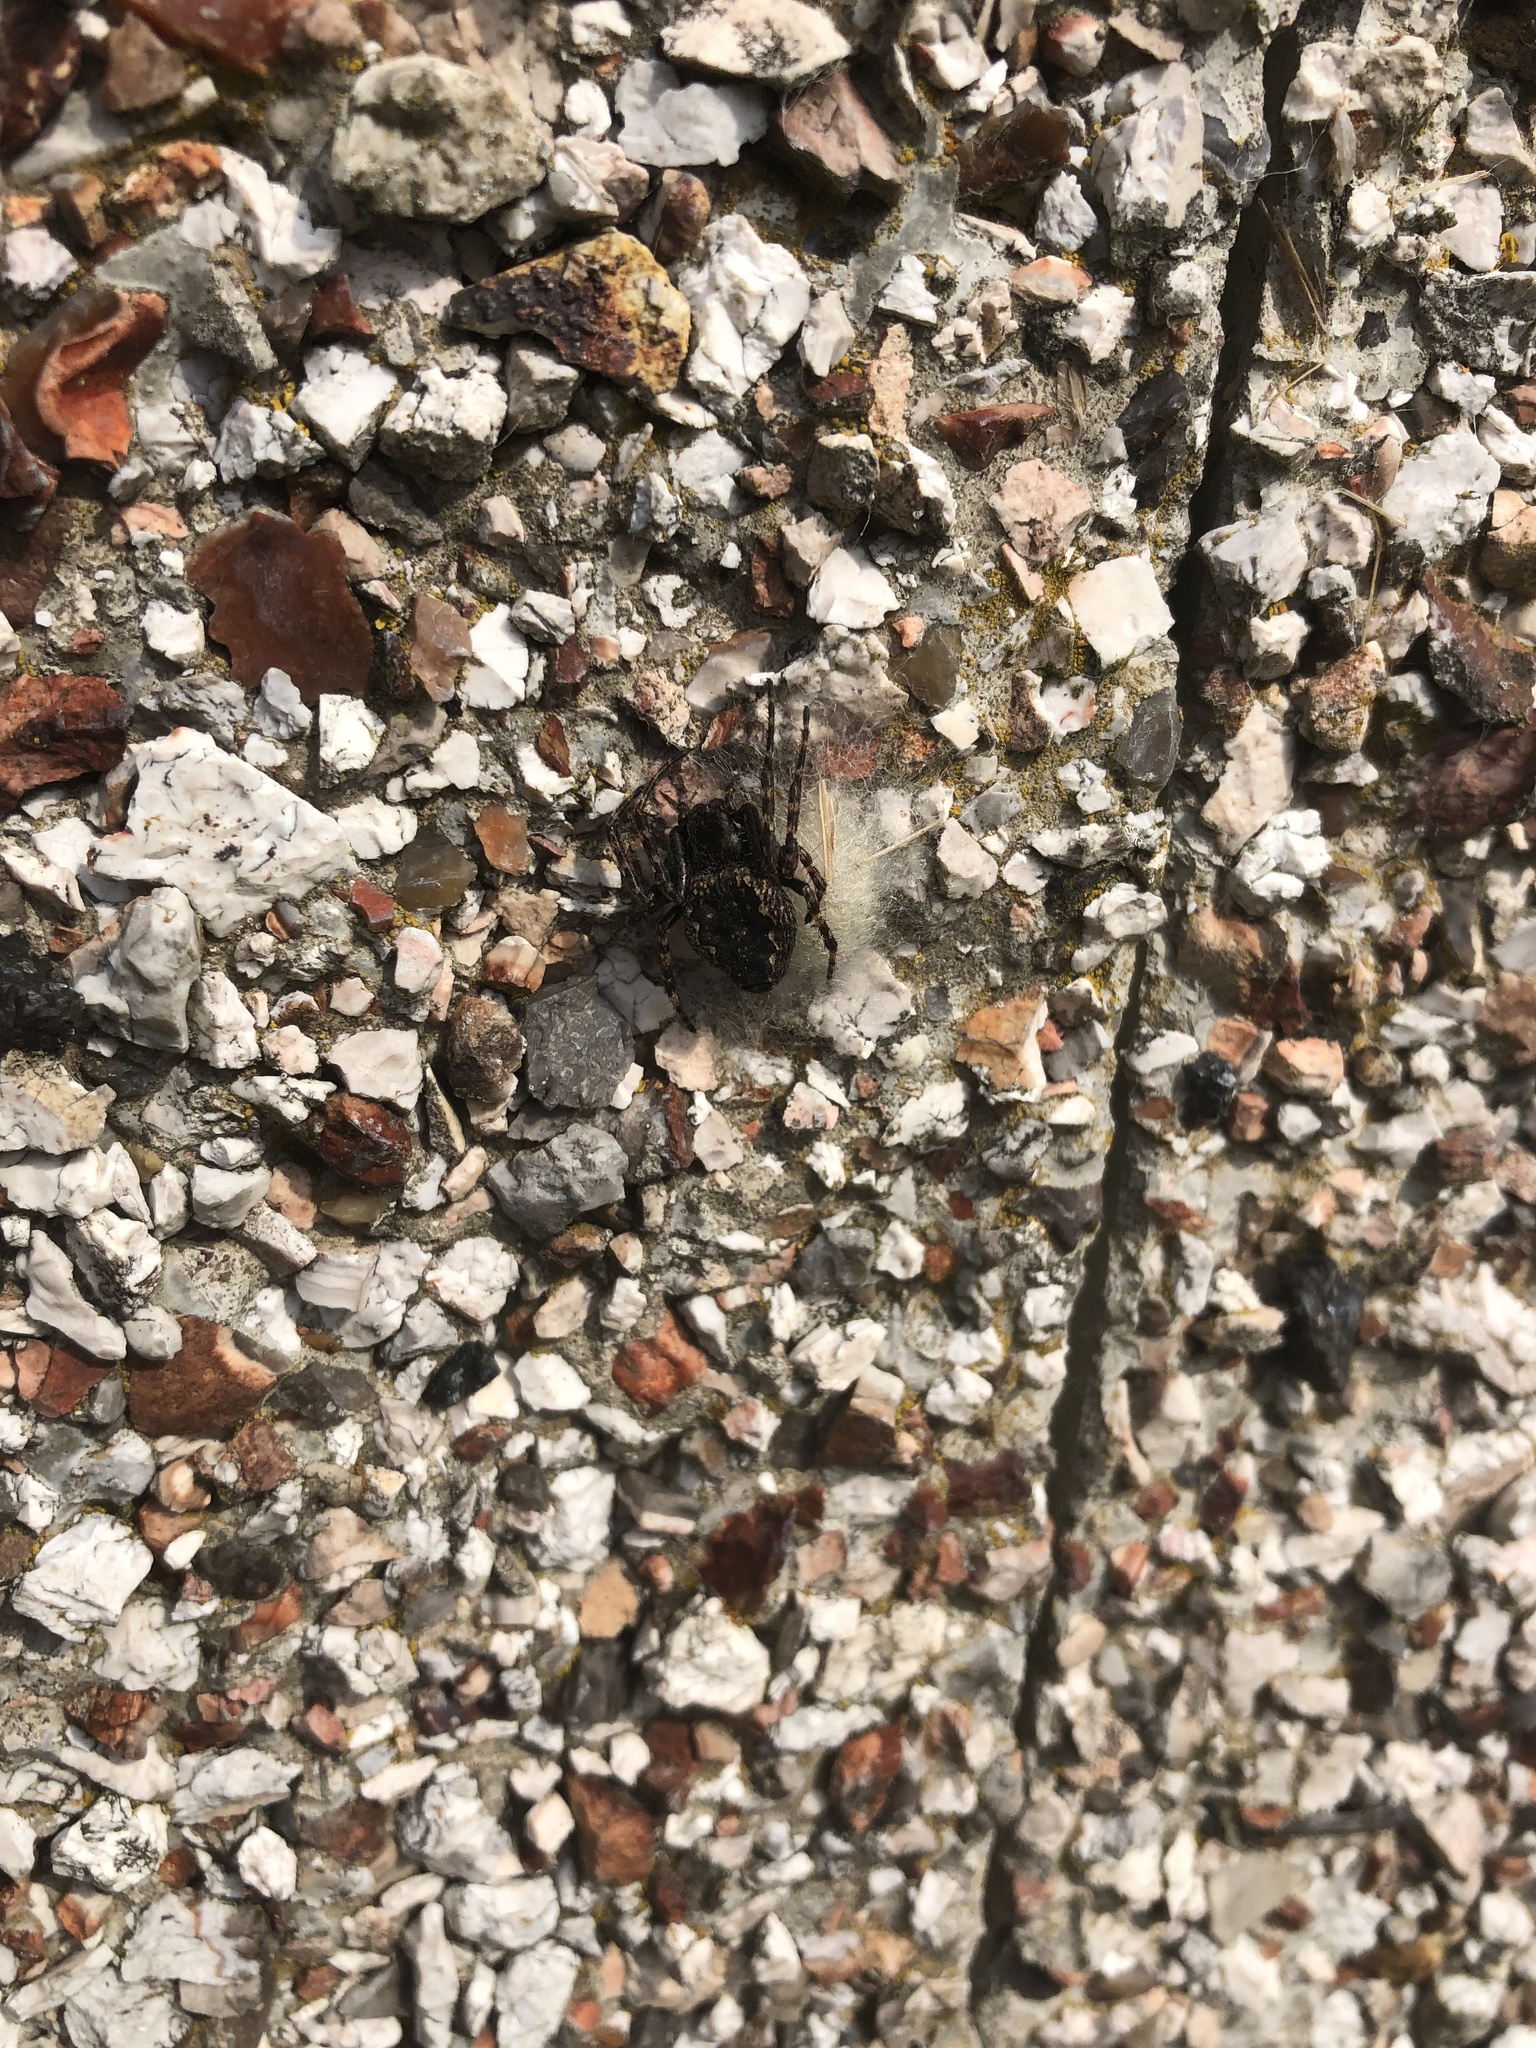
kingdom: Animalia
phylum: Arthropoda
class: Arachnida
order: Araneae
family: Araneidae
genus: Nuctenea
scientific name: Nuctenea umbratica
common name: Toad spider
